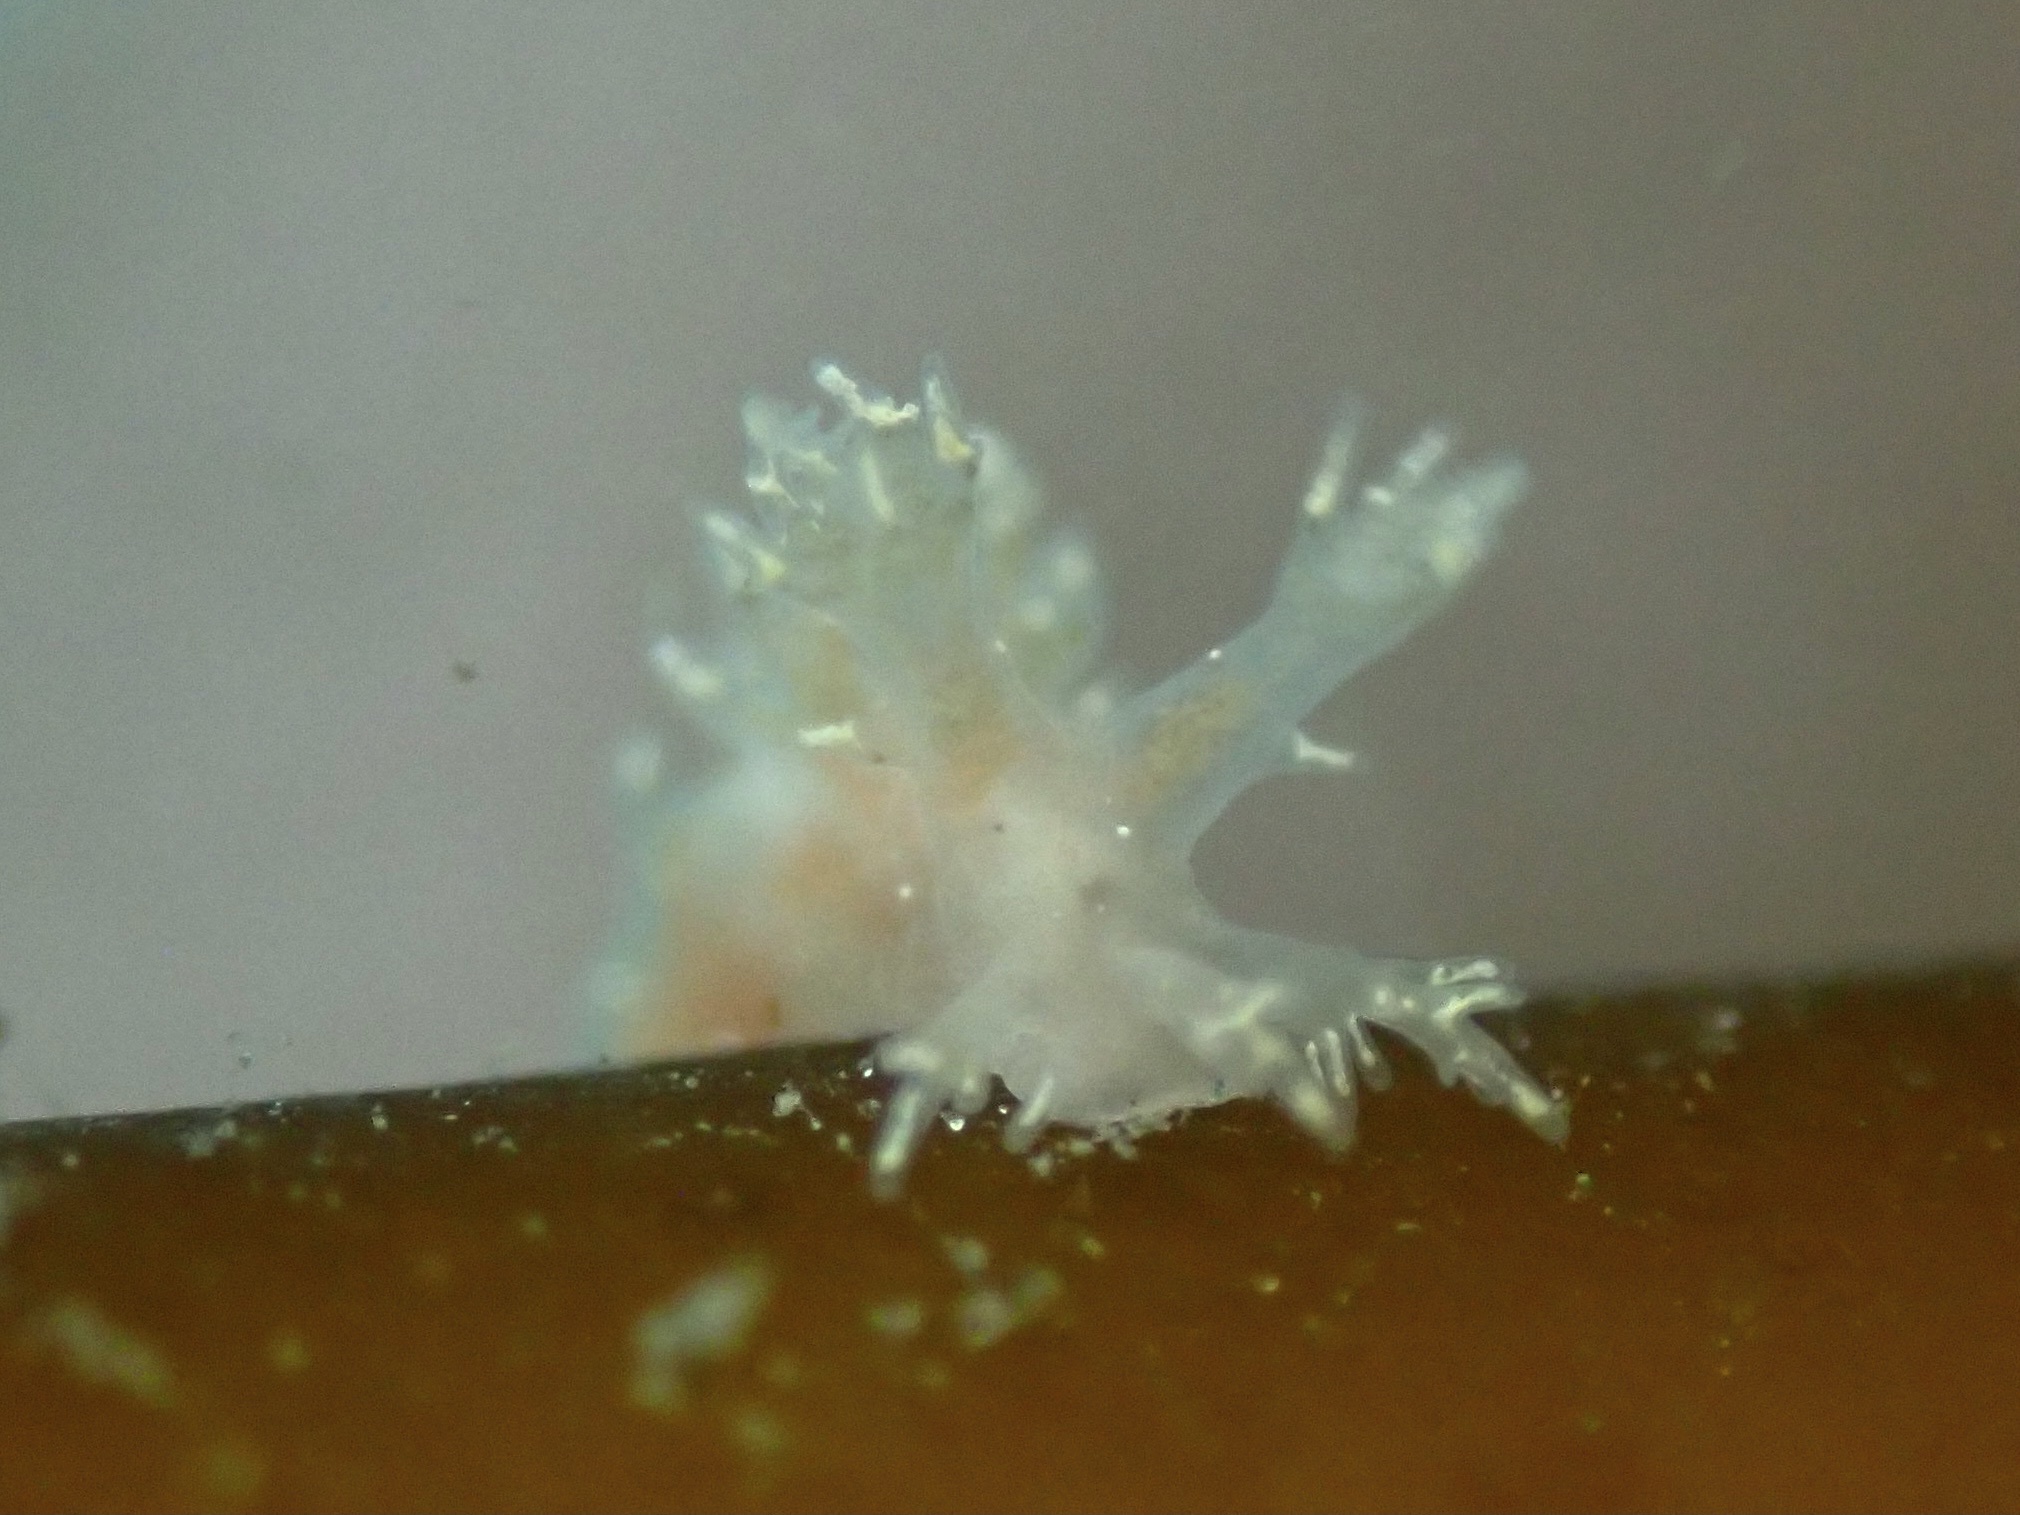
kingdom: Animalia
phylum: Mollusca
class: Gastropoda
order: Nudibranchia
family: Dendronotidae
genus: Dendronotus
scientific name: Dendronotus venustus
